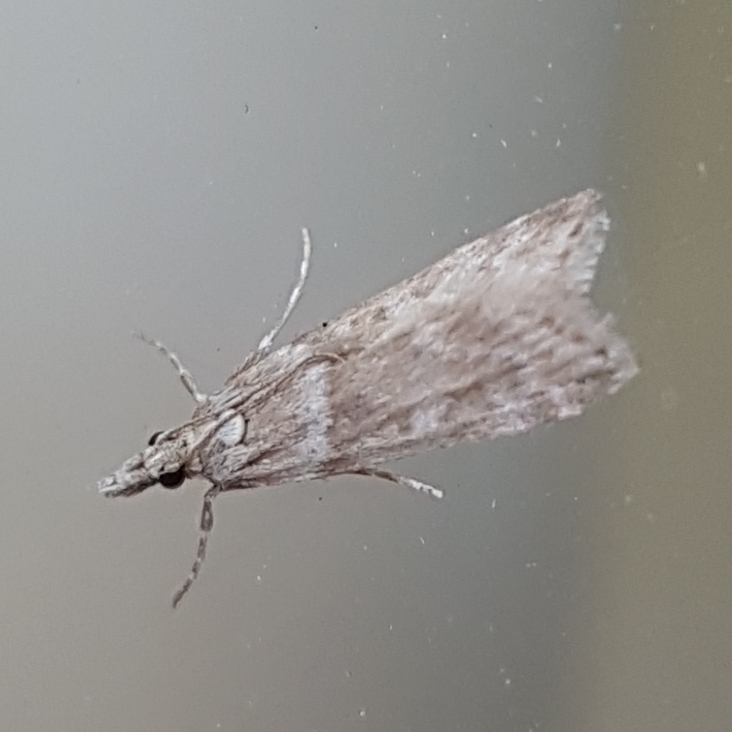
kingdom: Animalia
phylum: Arthropoda
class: Insecta
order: Lepidoptera
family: Crambidae
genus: Eudonia
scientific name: Eudonia angustea
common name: Narrow-winged grey
